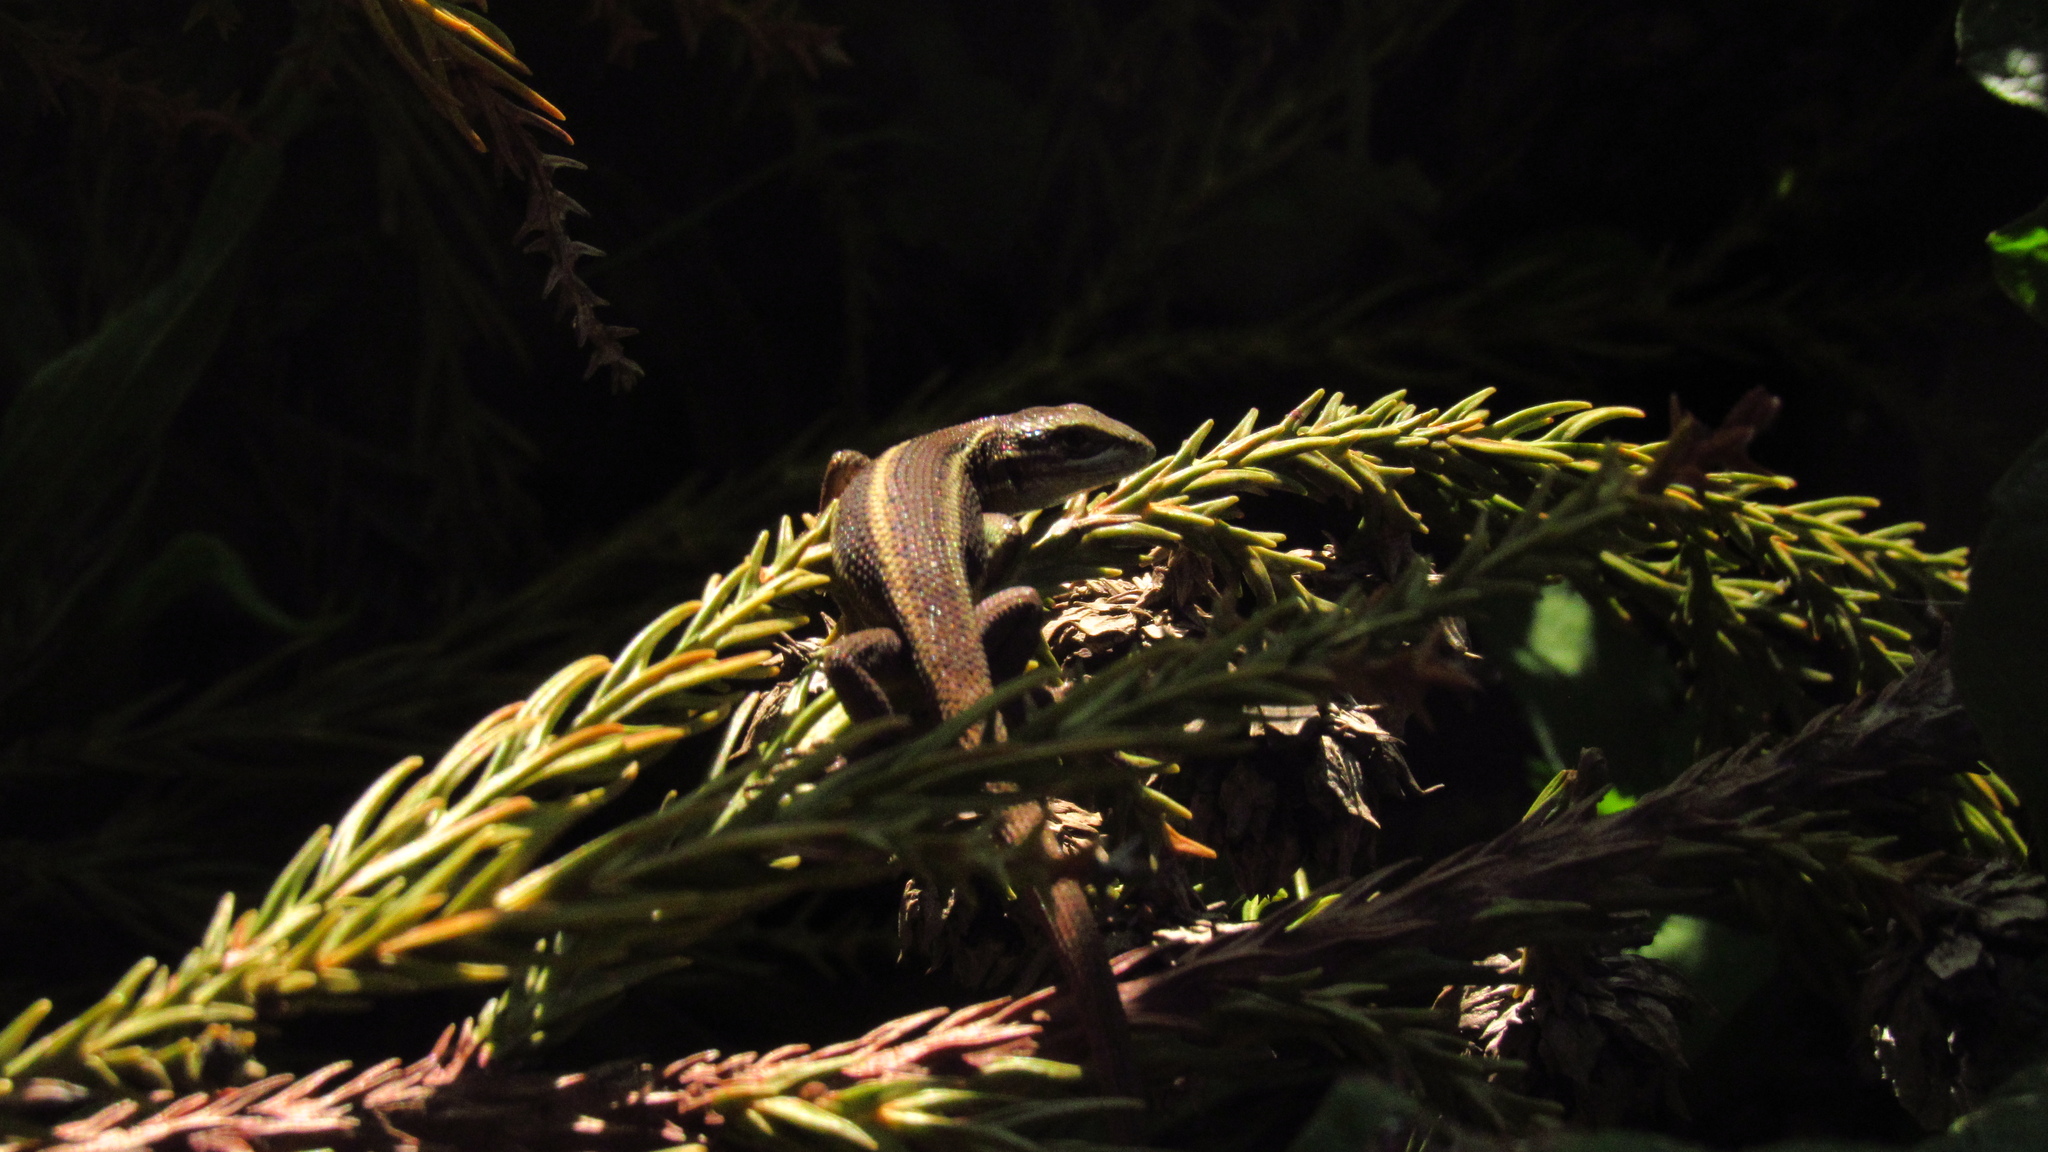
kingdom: Animalia
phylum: Chordata
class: Squamata
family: Liolaemidae
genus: Liolaemus
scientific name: Liolaemus cyanogaster
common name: Cyan tree iguana
